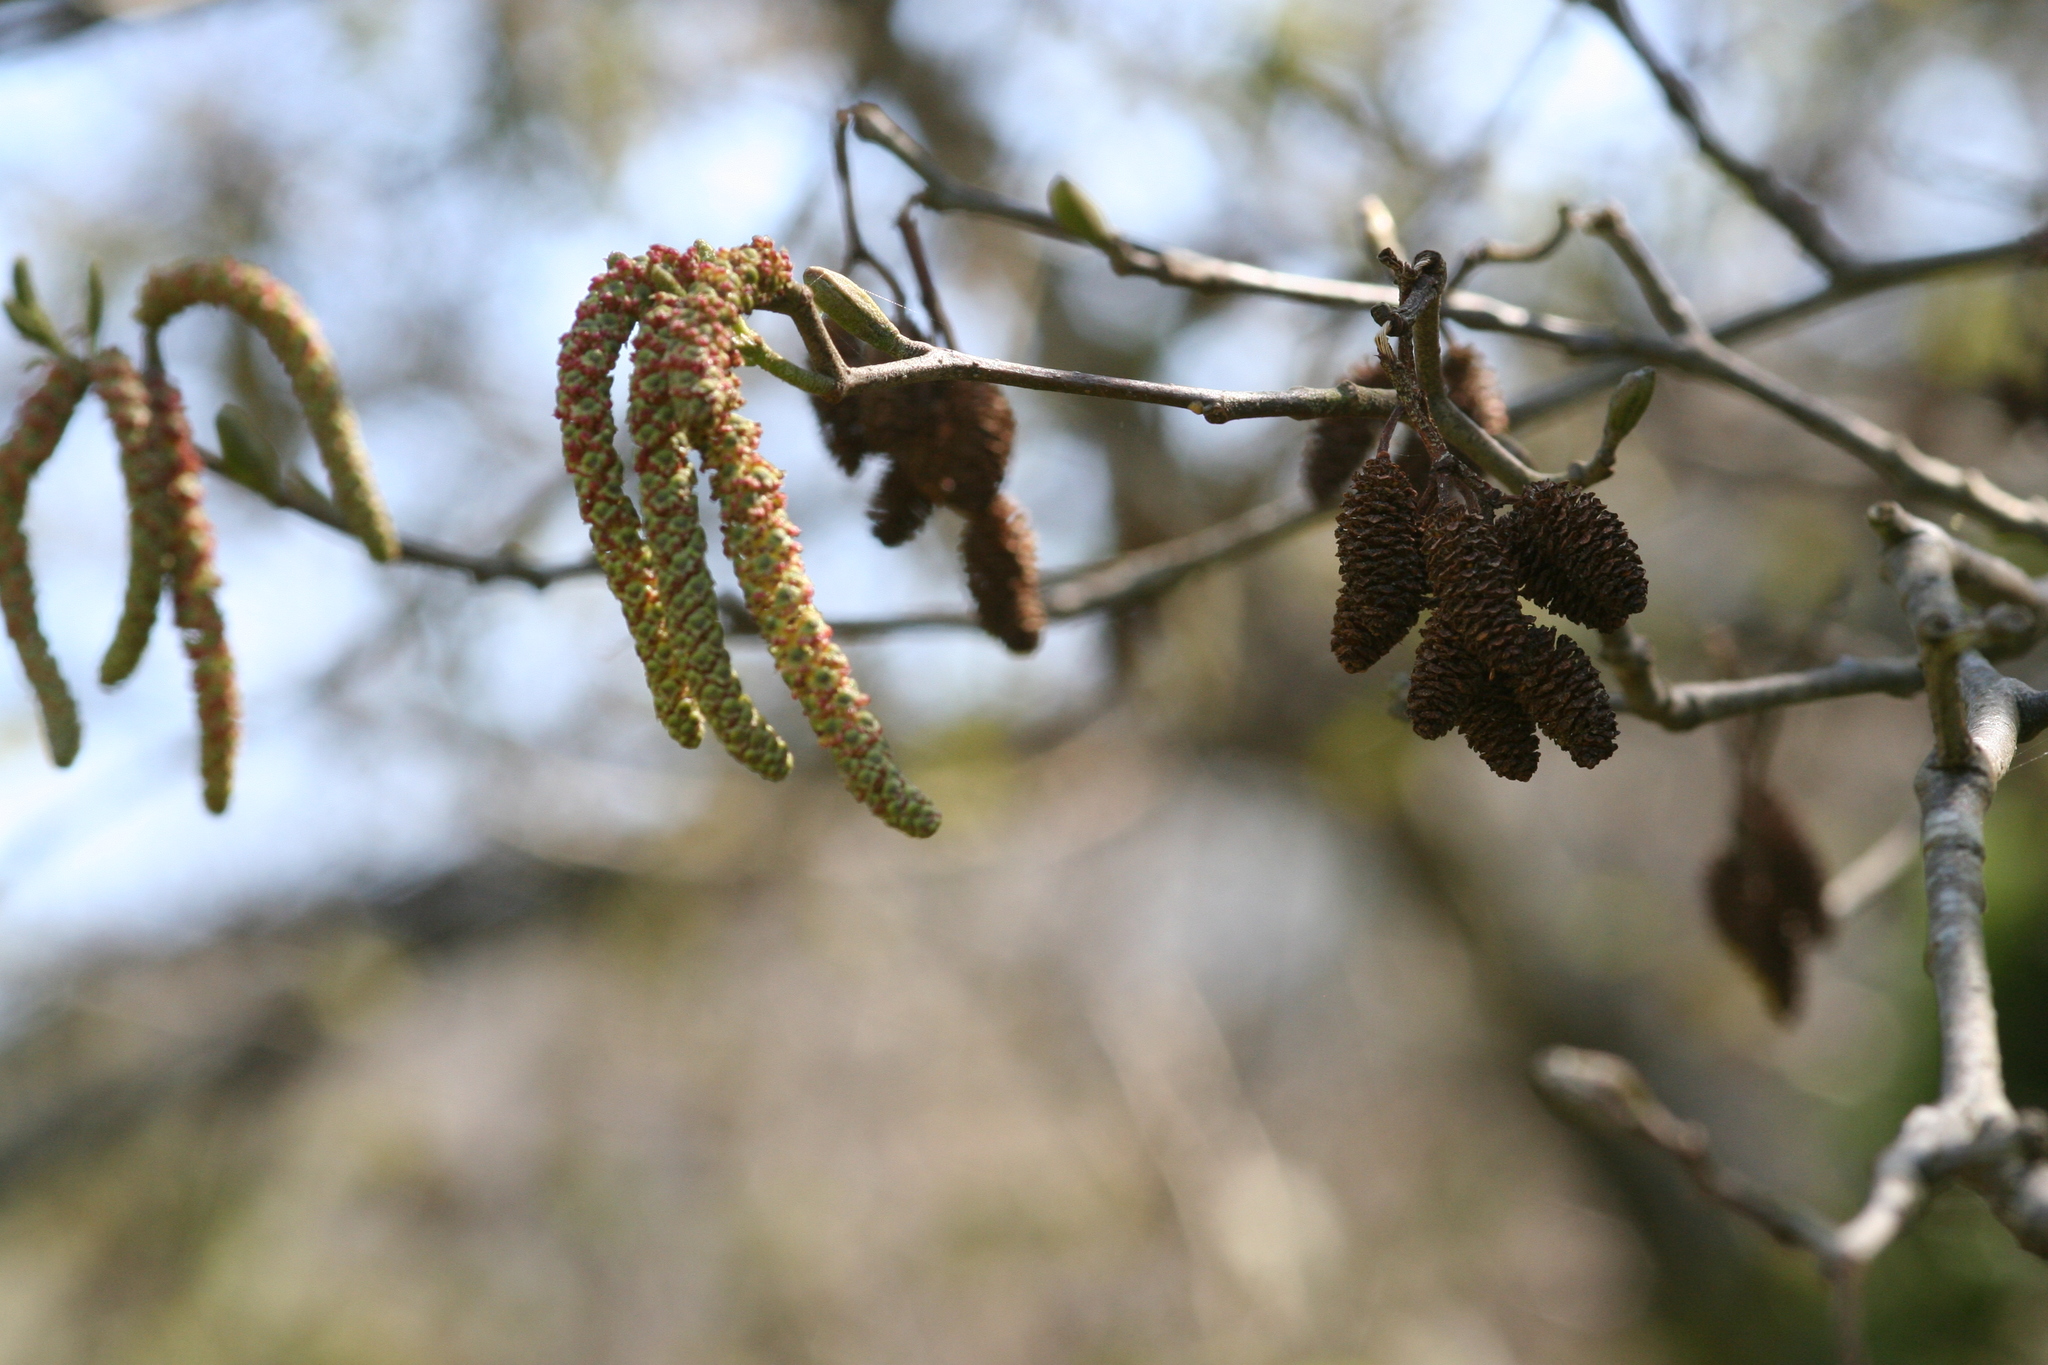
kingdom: Plantae
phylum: Tracheophyta
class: Magnoliopsida
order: Fagales
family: Betulaceae
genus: Alnus
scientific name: Alnus rubra
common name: Red alder
